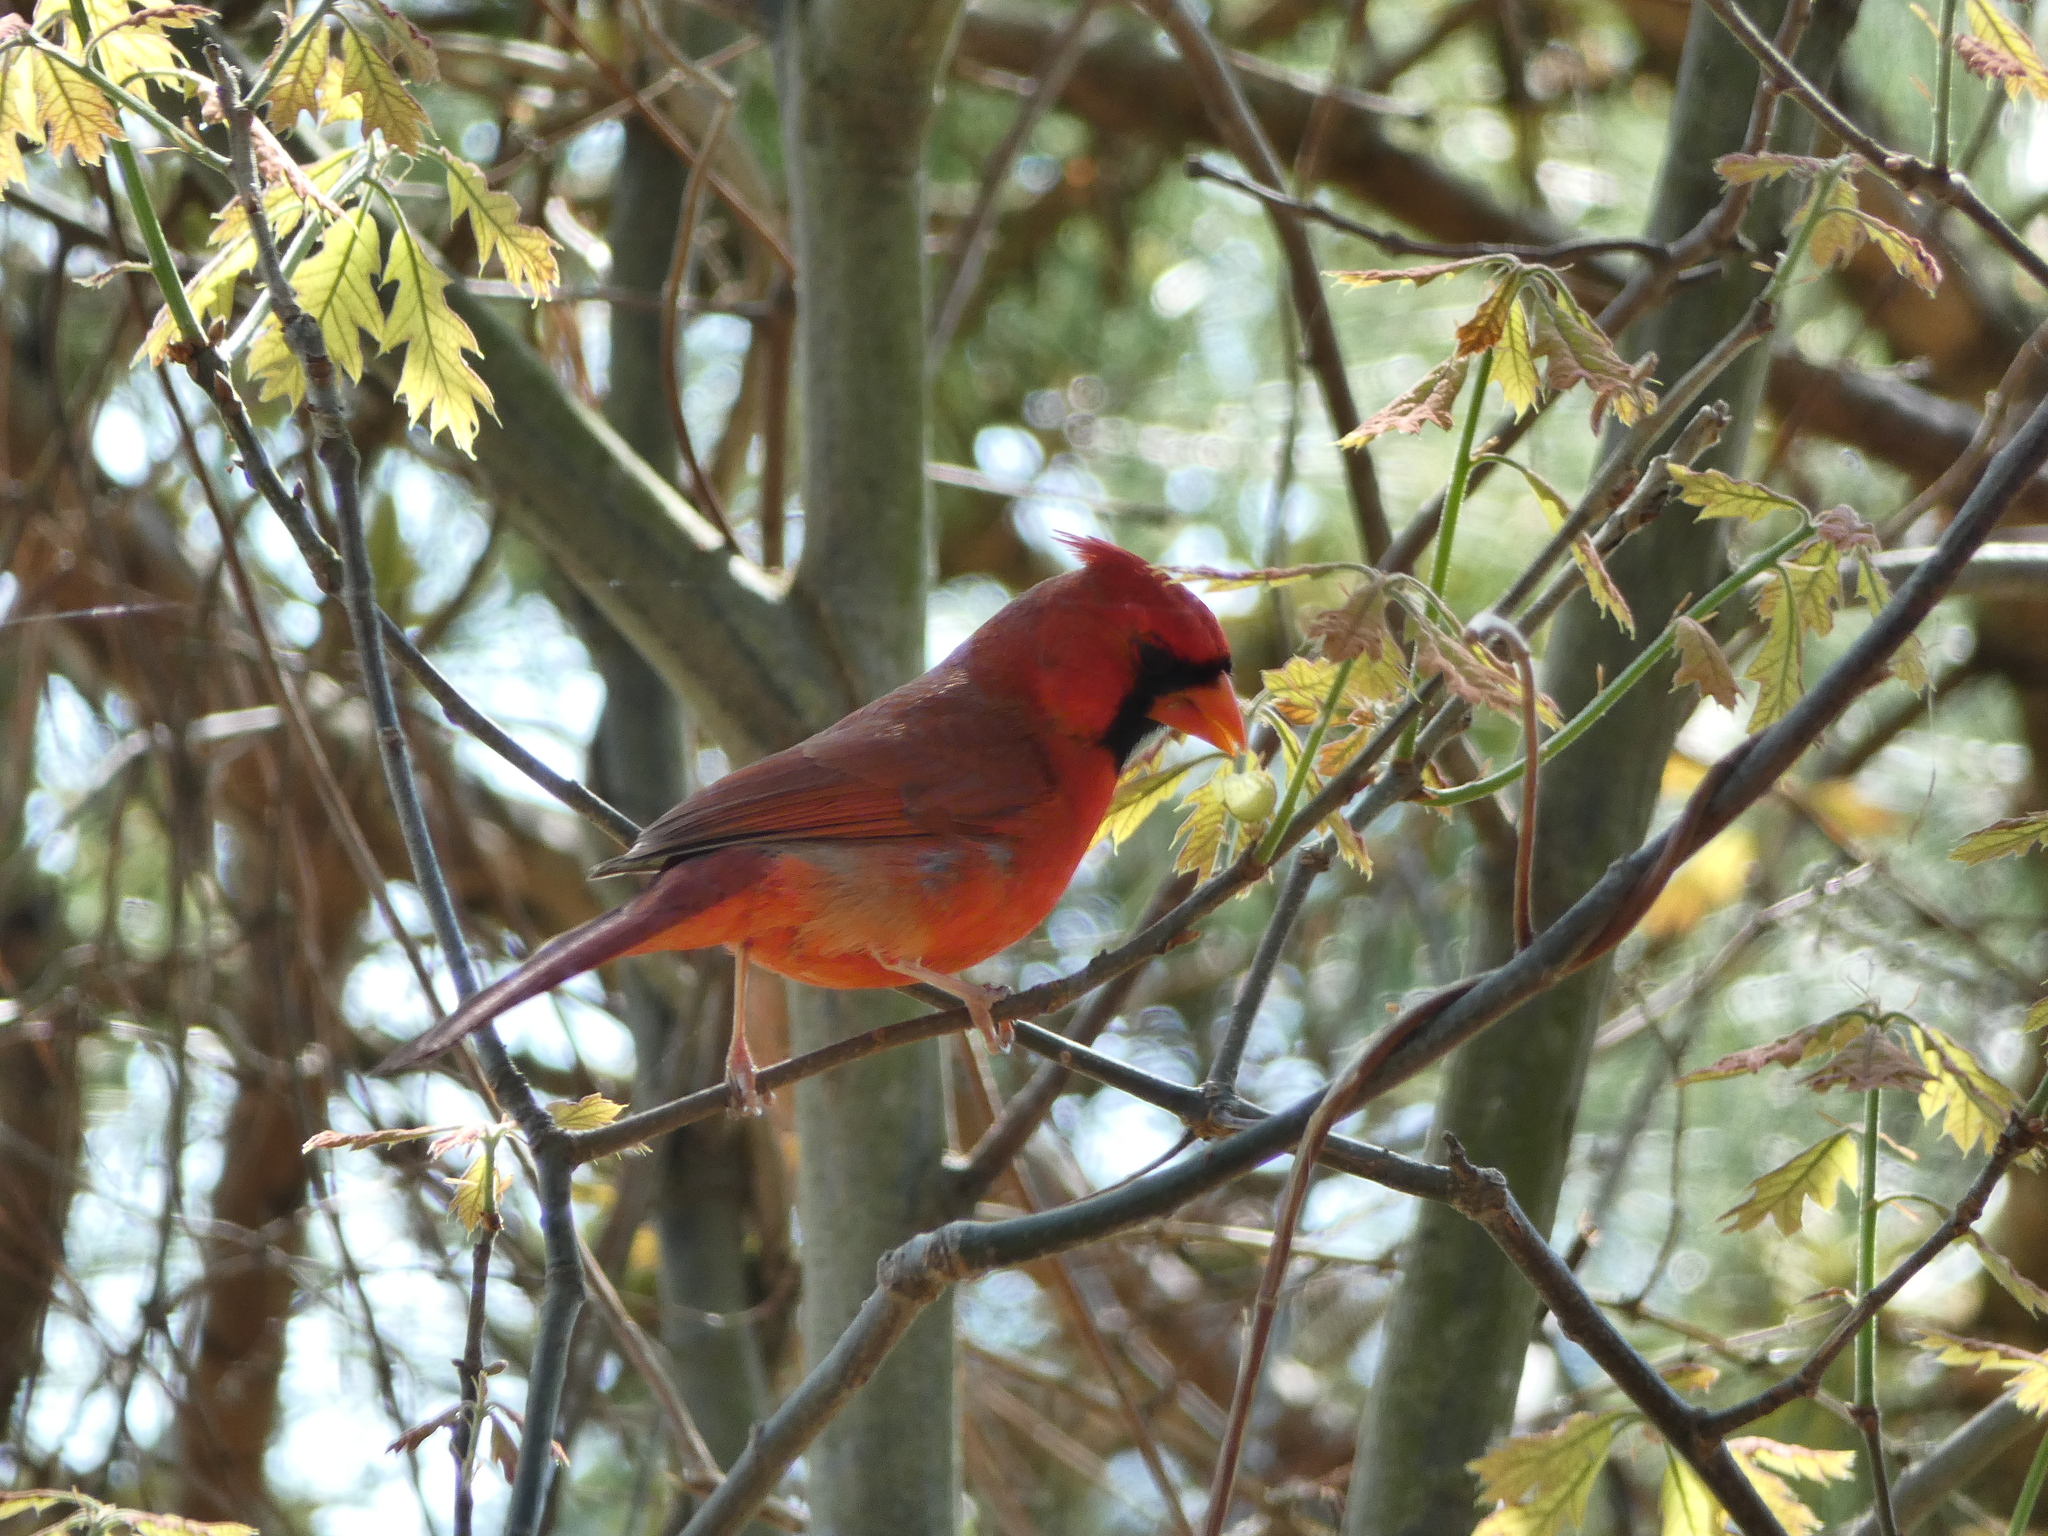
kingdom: Animalia
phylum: Chordata
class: Aves
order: Passeriformes
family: Cardinalidae
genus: Cardinalis
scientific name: Cardinalis cardinalis
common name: Northern cardinal
